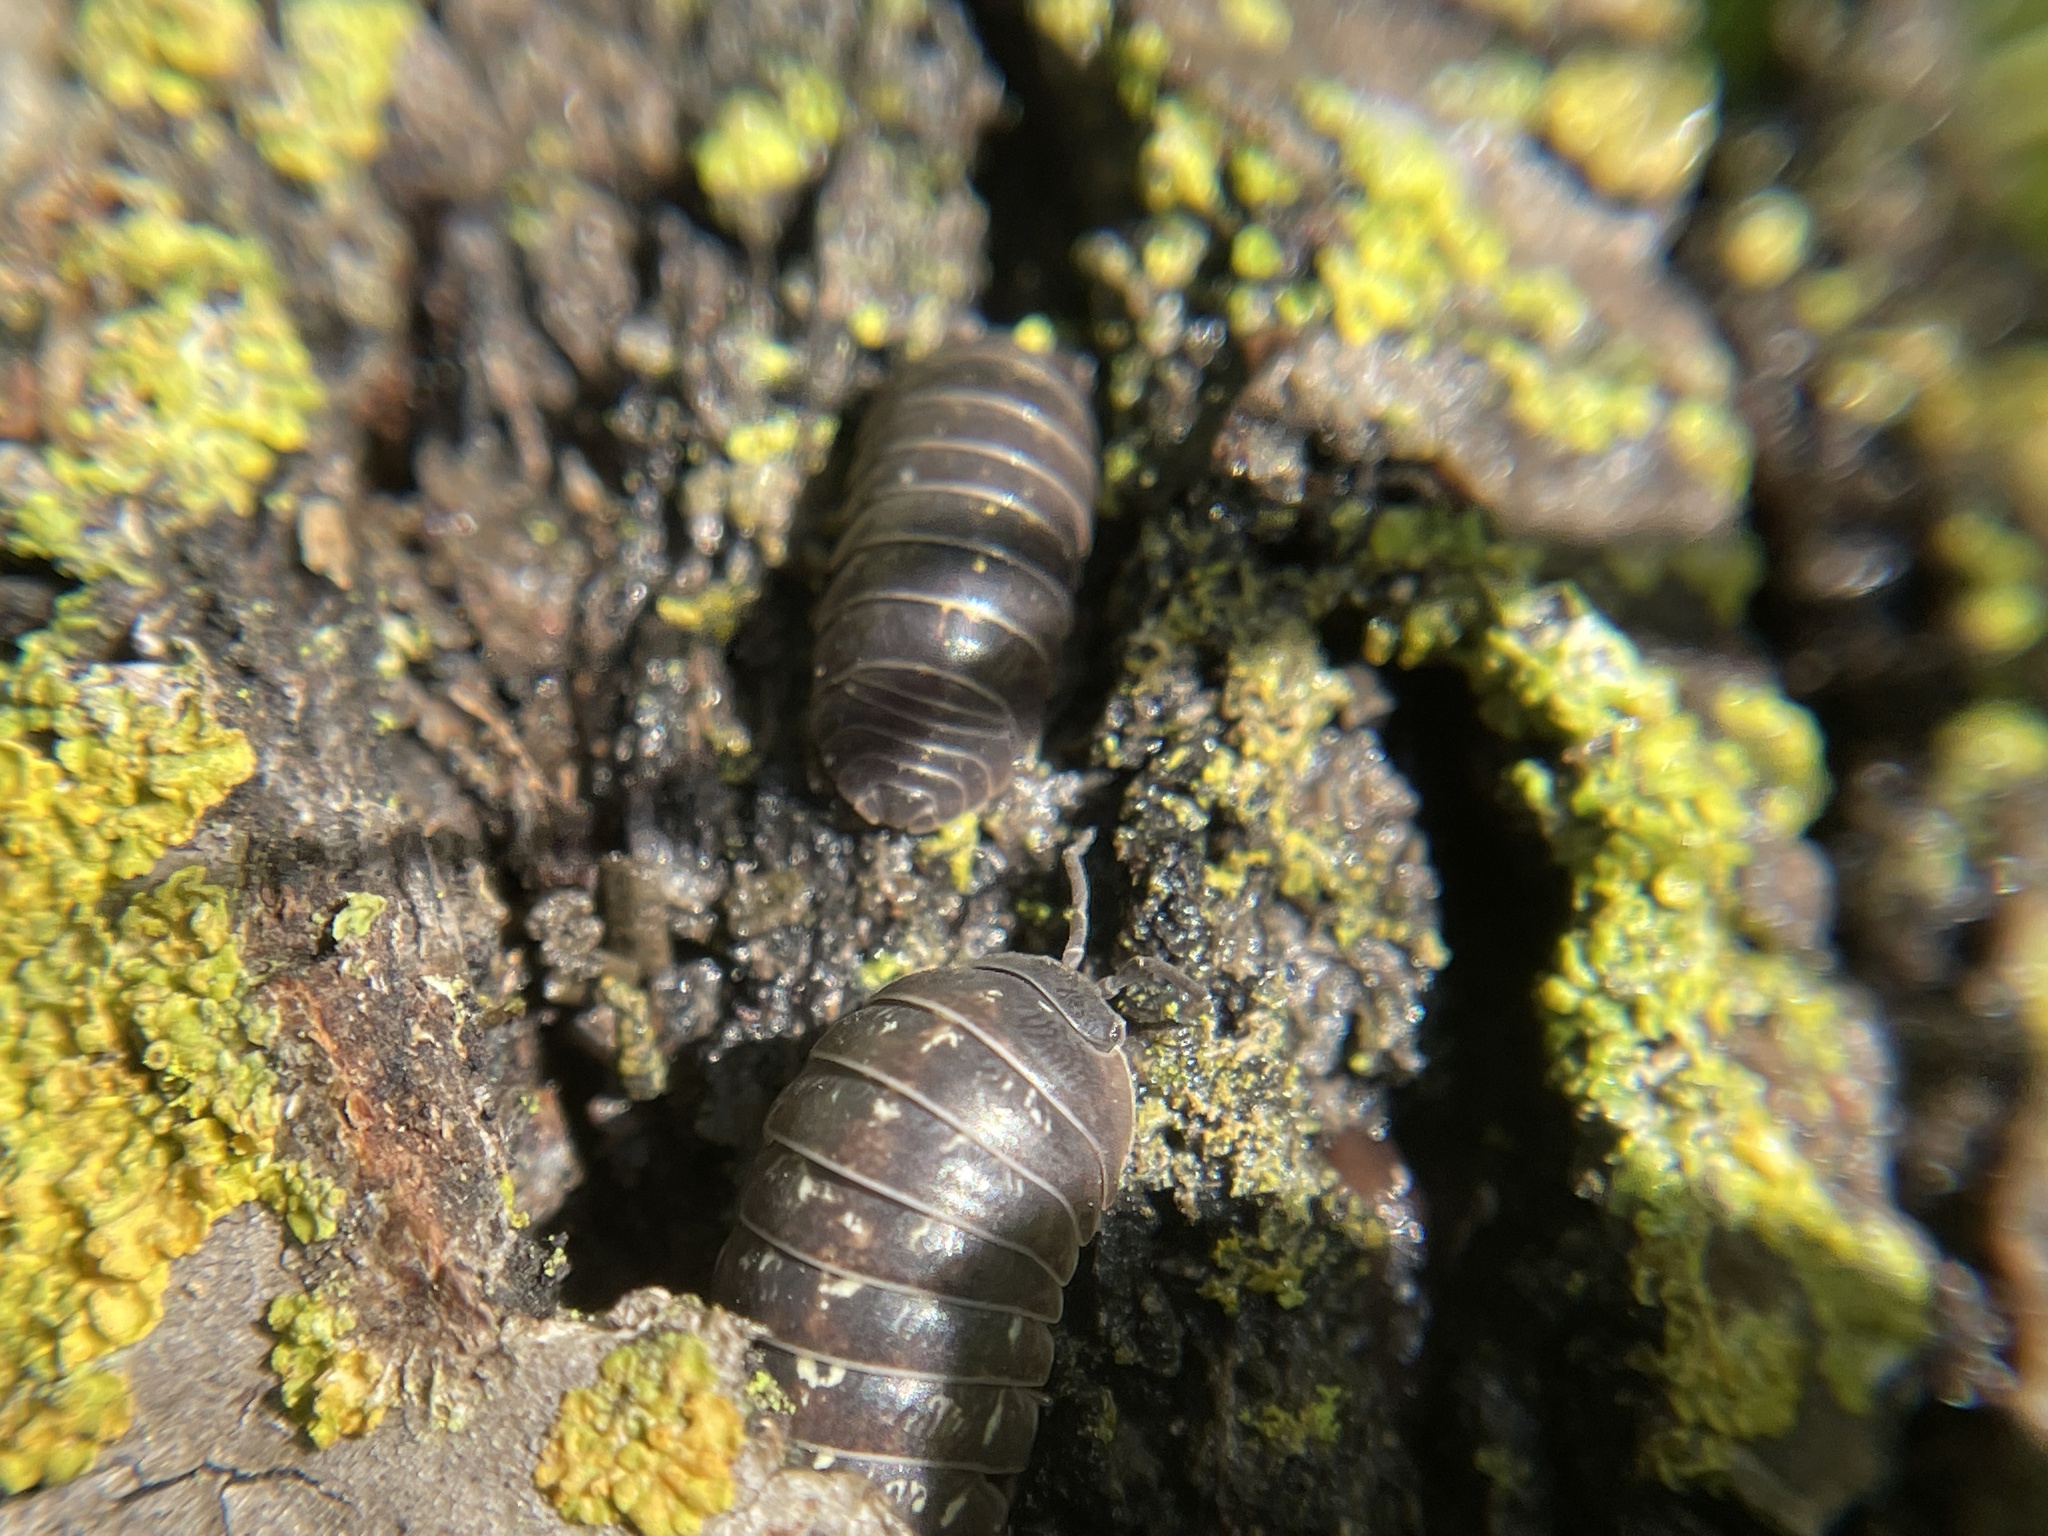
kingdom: Animalia
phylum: Arthropoda
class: Malacostraca
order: Isopoda
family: Armadillidiidae
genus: Armadillidium
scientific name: Armadillidium vulgare
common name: Common pill woodlouse
